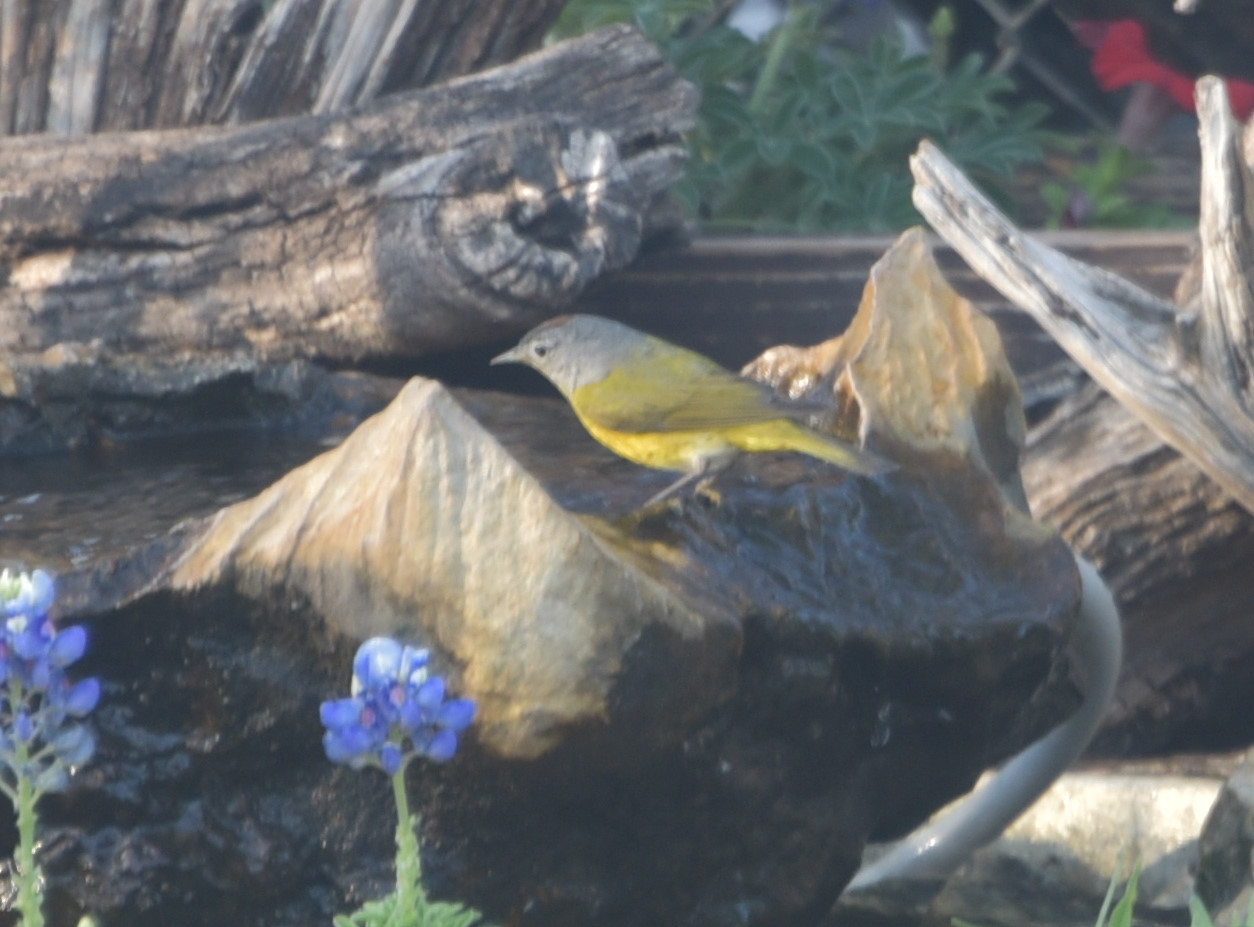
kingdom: Animalia
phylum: Chordata
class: Aves
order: Passeriformes
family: Parulidae
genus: Leiothlypis
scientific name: Leiothlypis ruficapilla
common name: Nashville warbler
